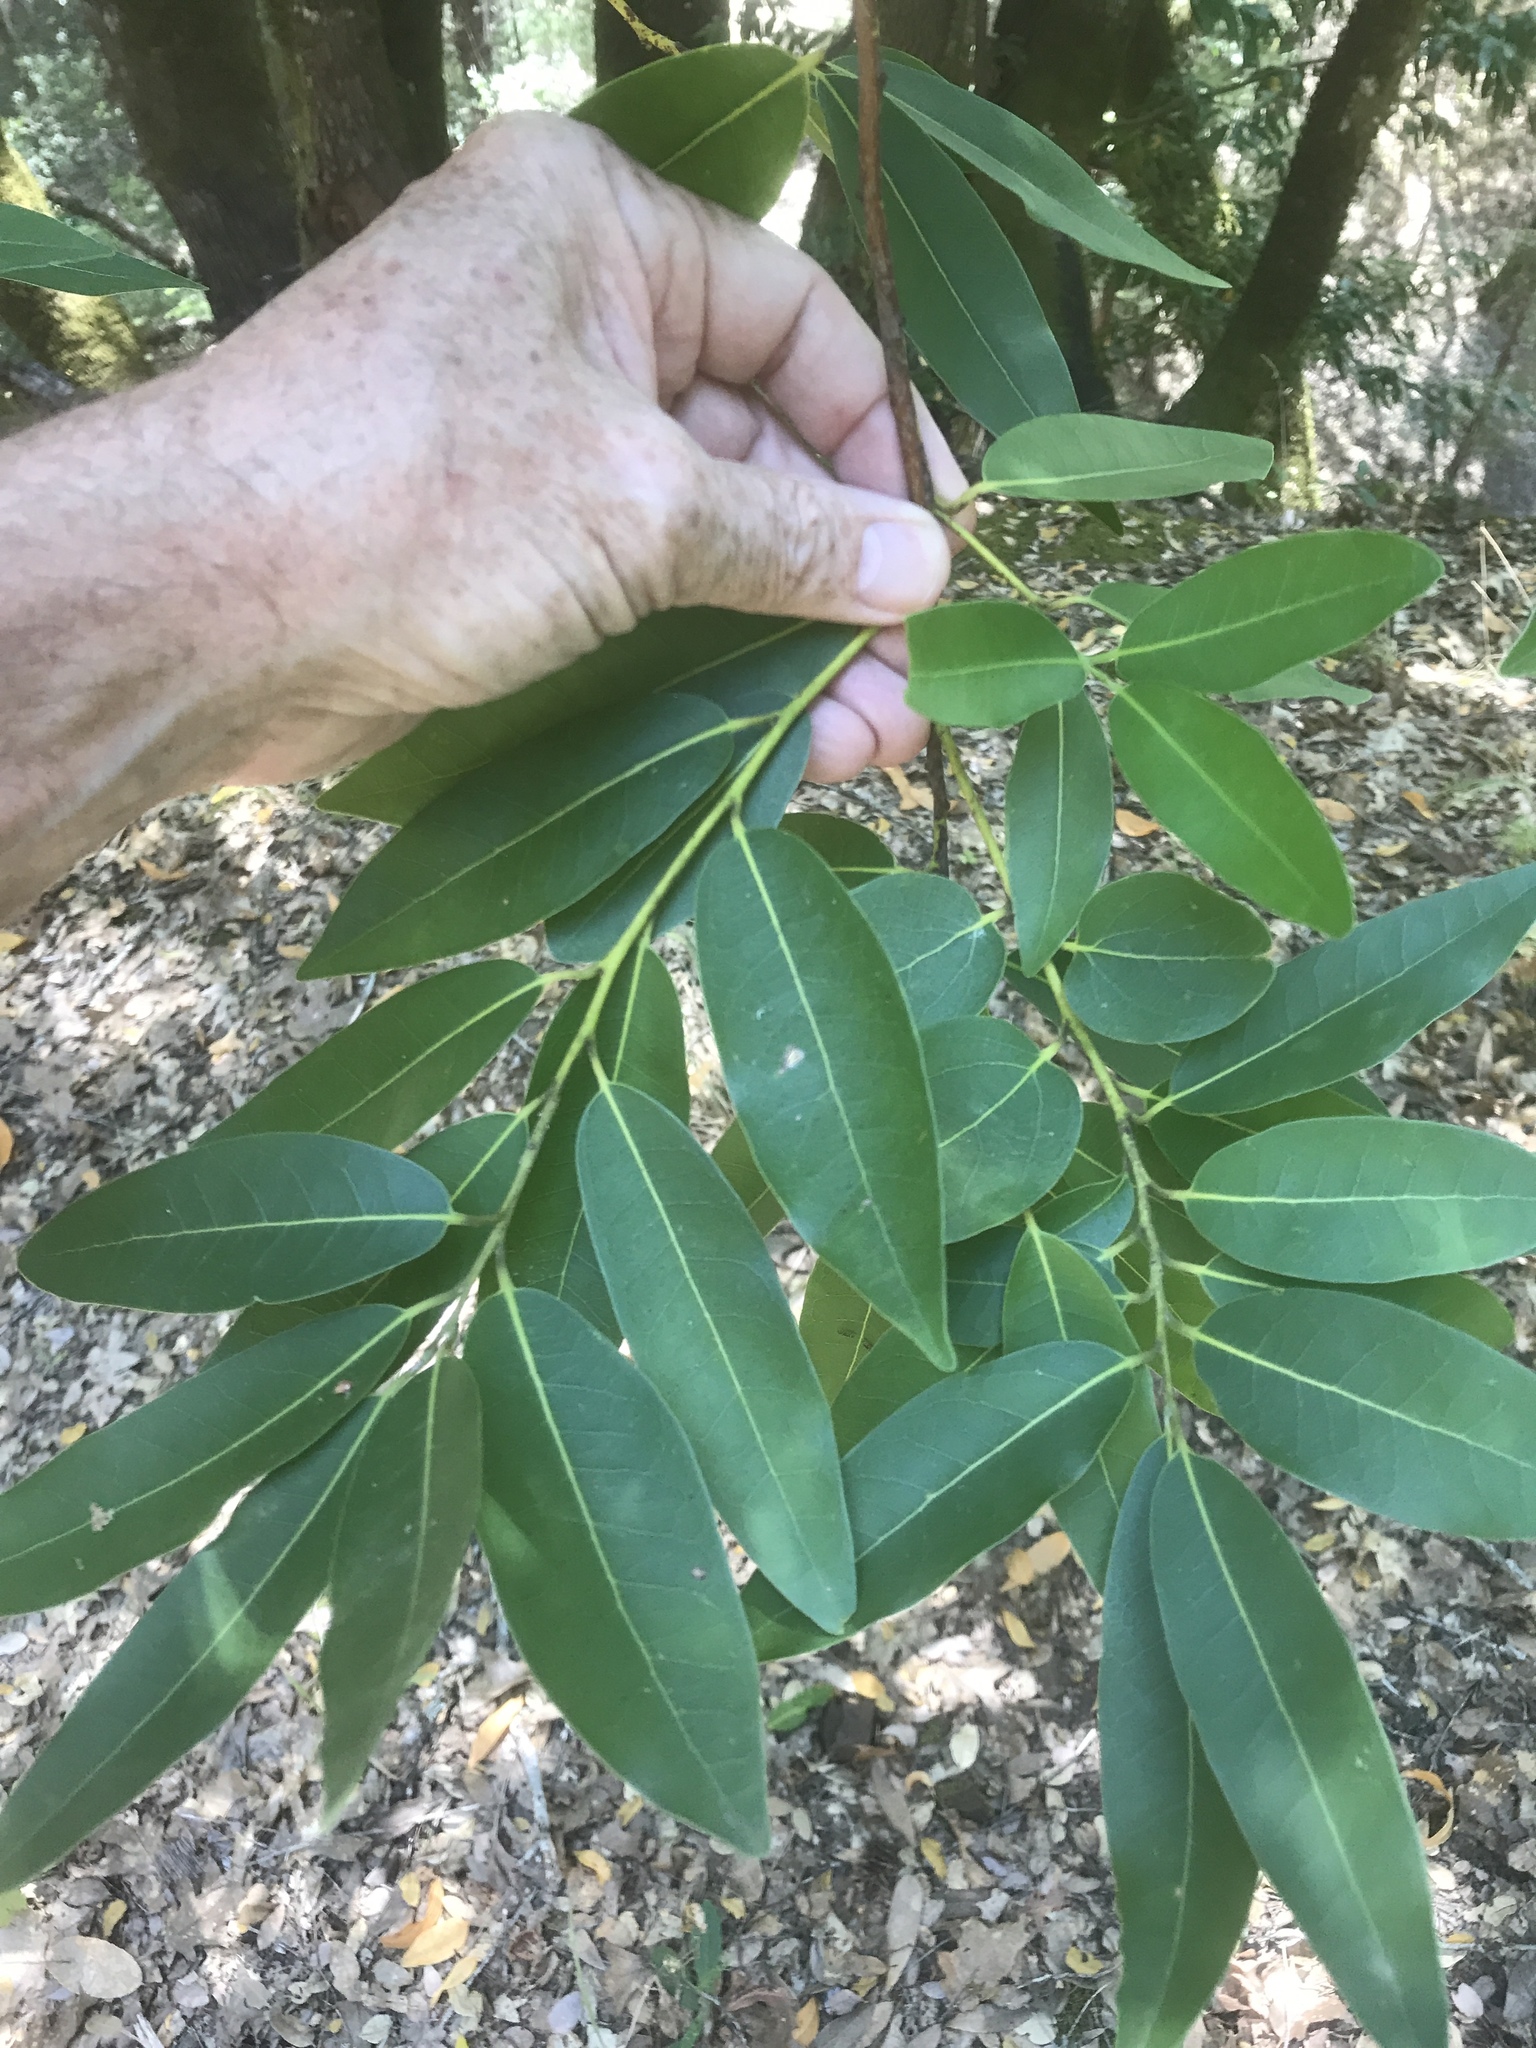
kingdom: Plantae
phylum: Tracheophyta
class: Magnoliopsida
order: Laurales
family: Lauraceae
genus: Umbellularia
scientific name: Umbellularia californica
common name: California bay
